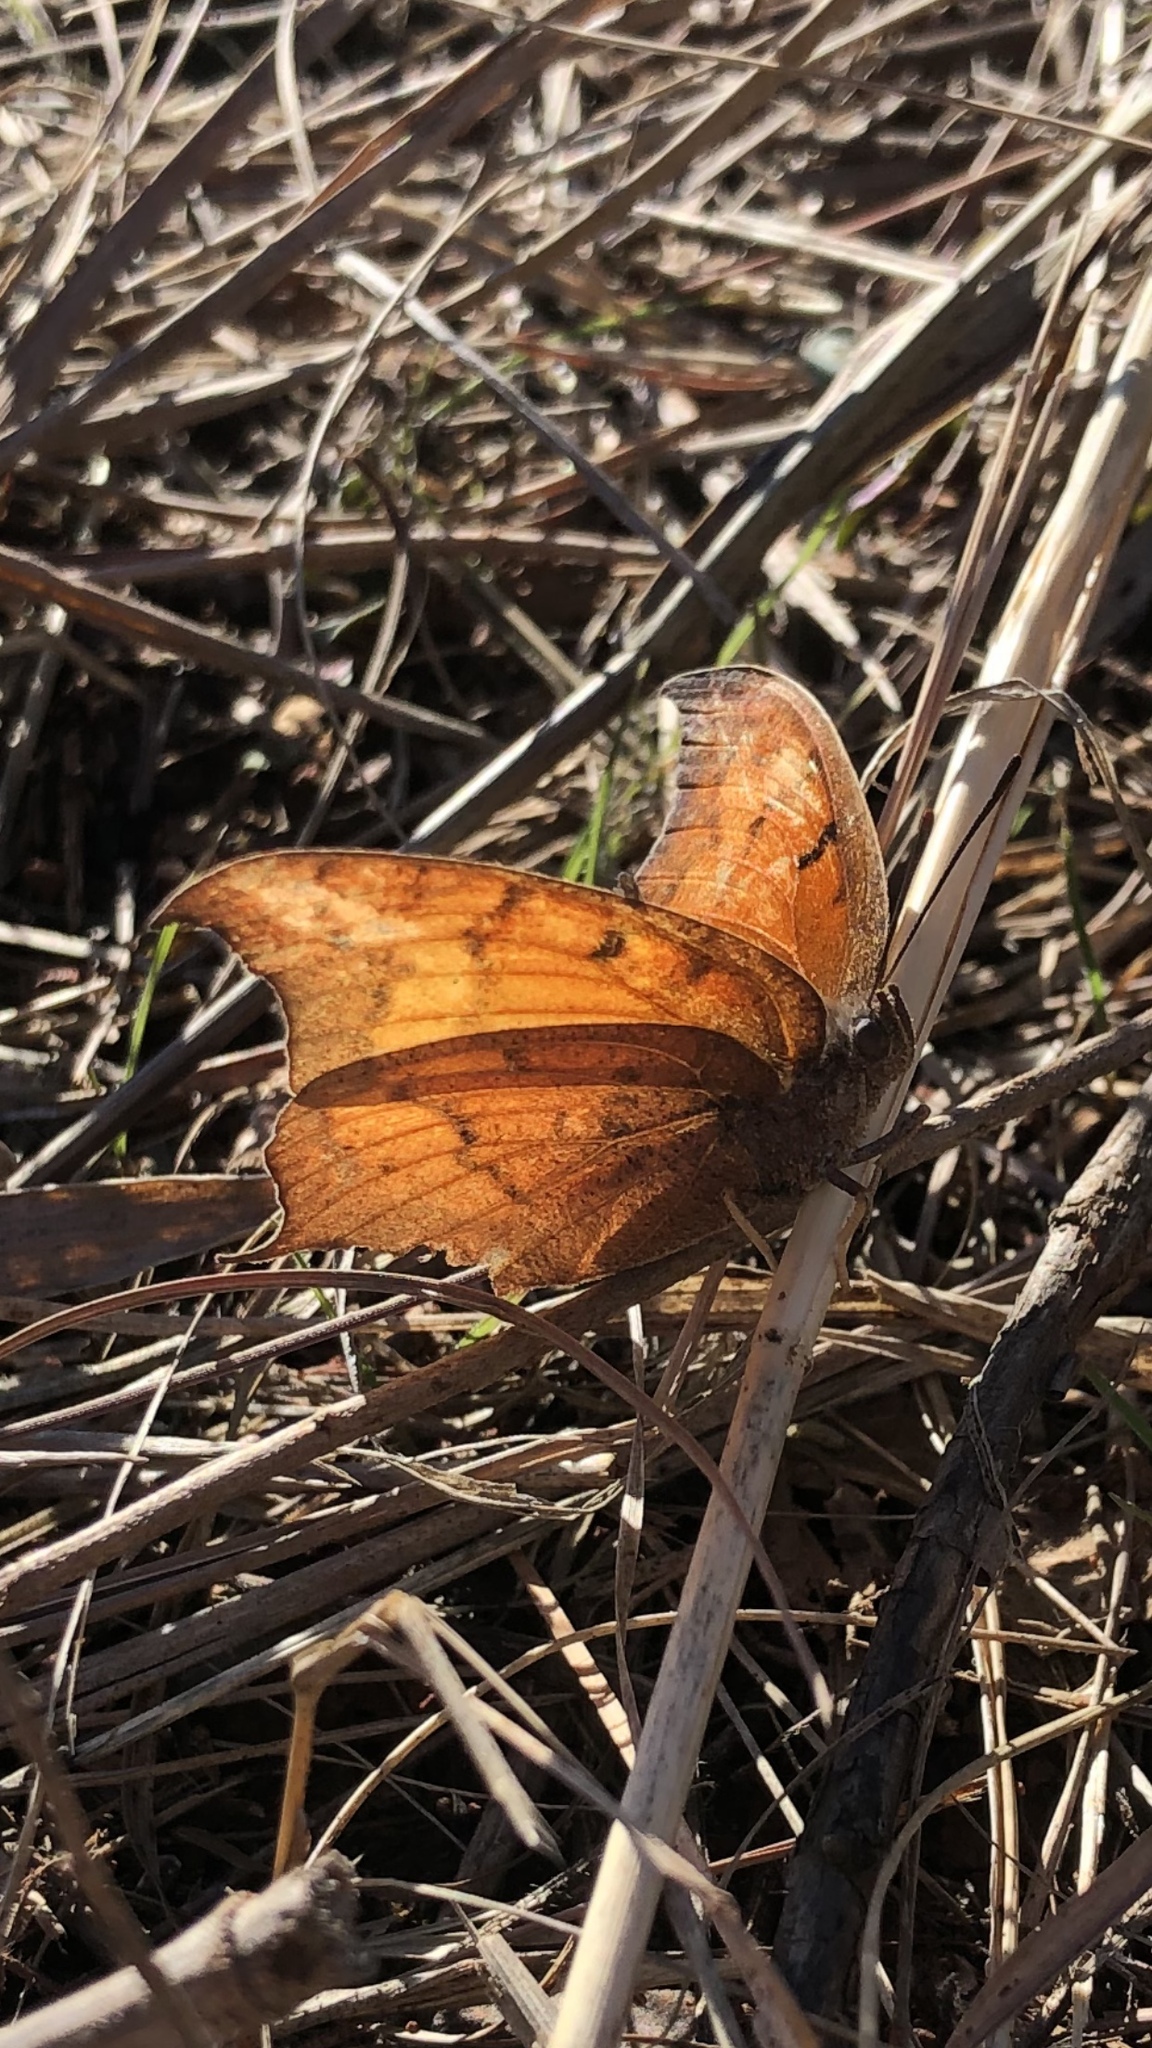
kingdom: Animalia
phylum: Arthropoda
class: Insecta
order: Lepidoptera
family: Nymphalidae
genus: Anaea
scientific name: Anaea andria
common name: Goatweed leafwing
